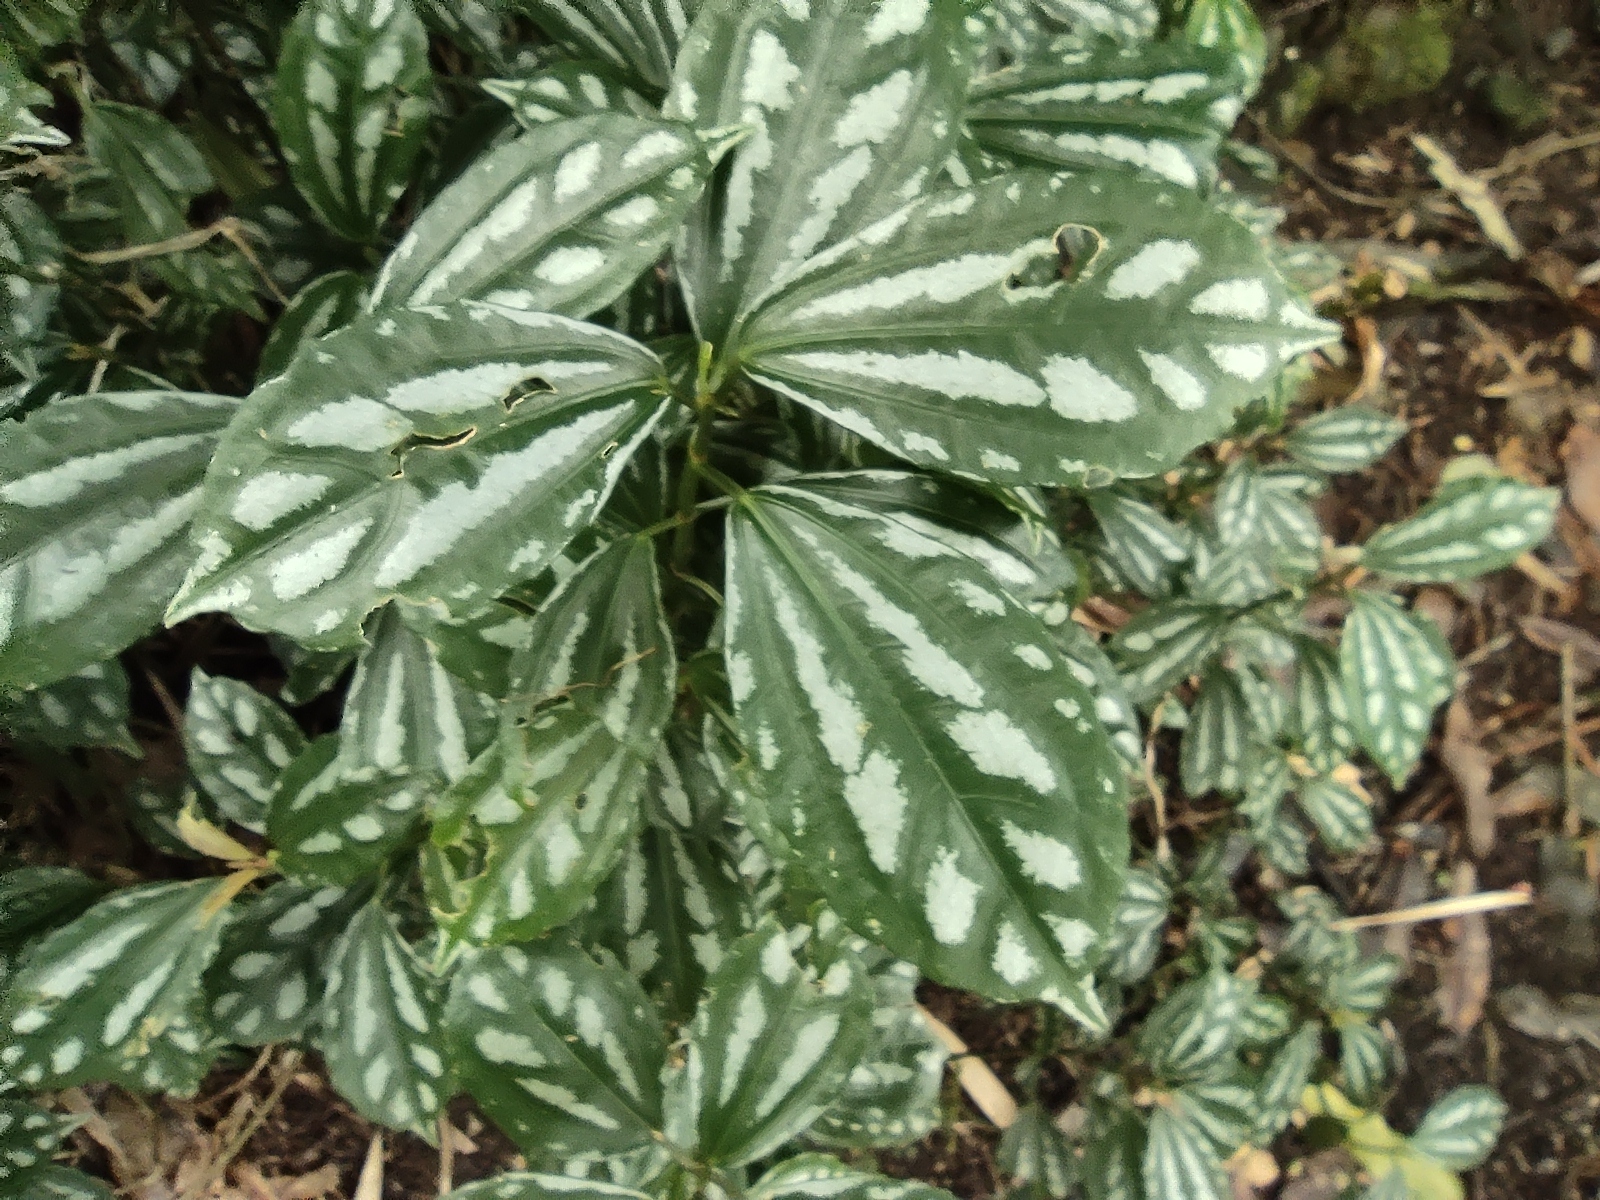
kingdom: Plantae
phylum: Tracheophyta
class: Magnoliopsida
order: Rosales
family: Urticaceae
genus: Pilea
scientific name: Pilea cadierei
